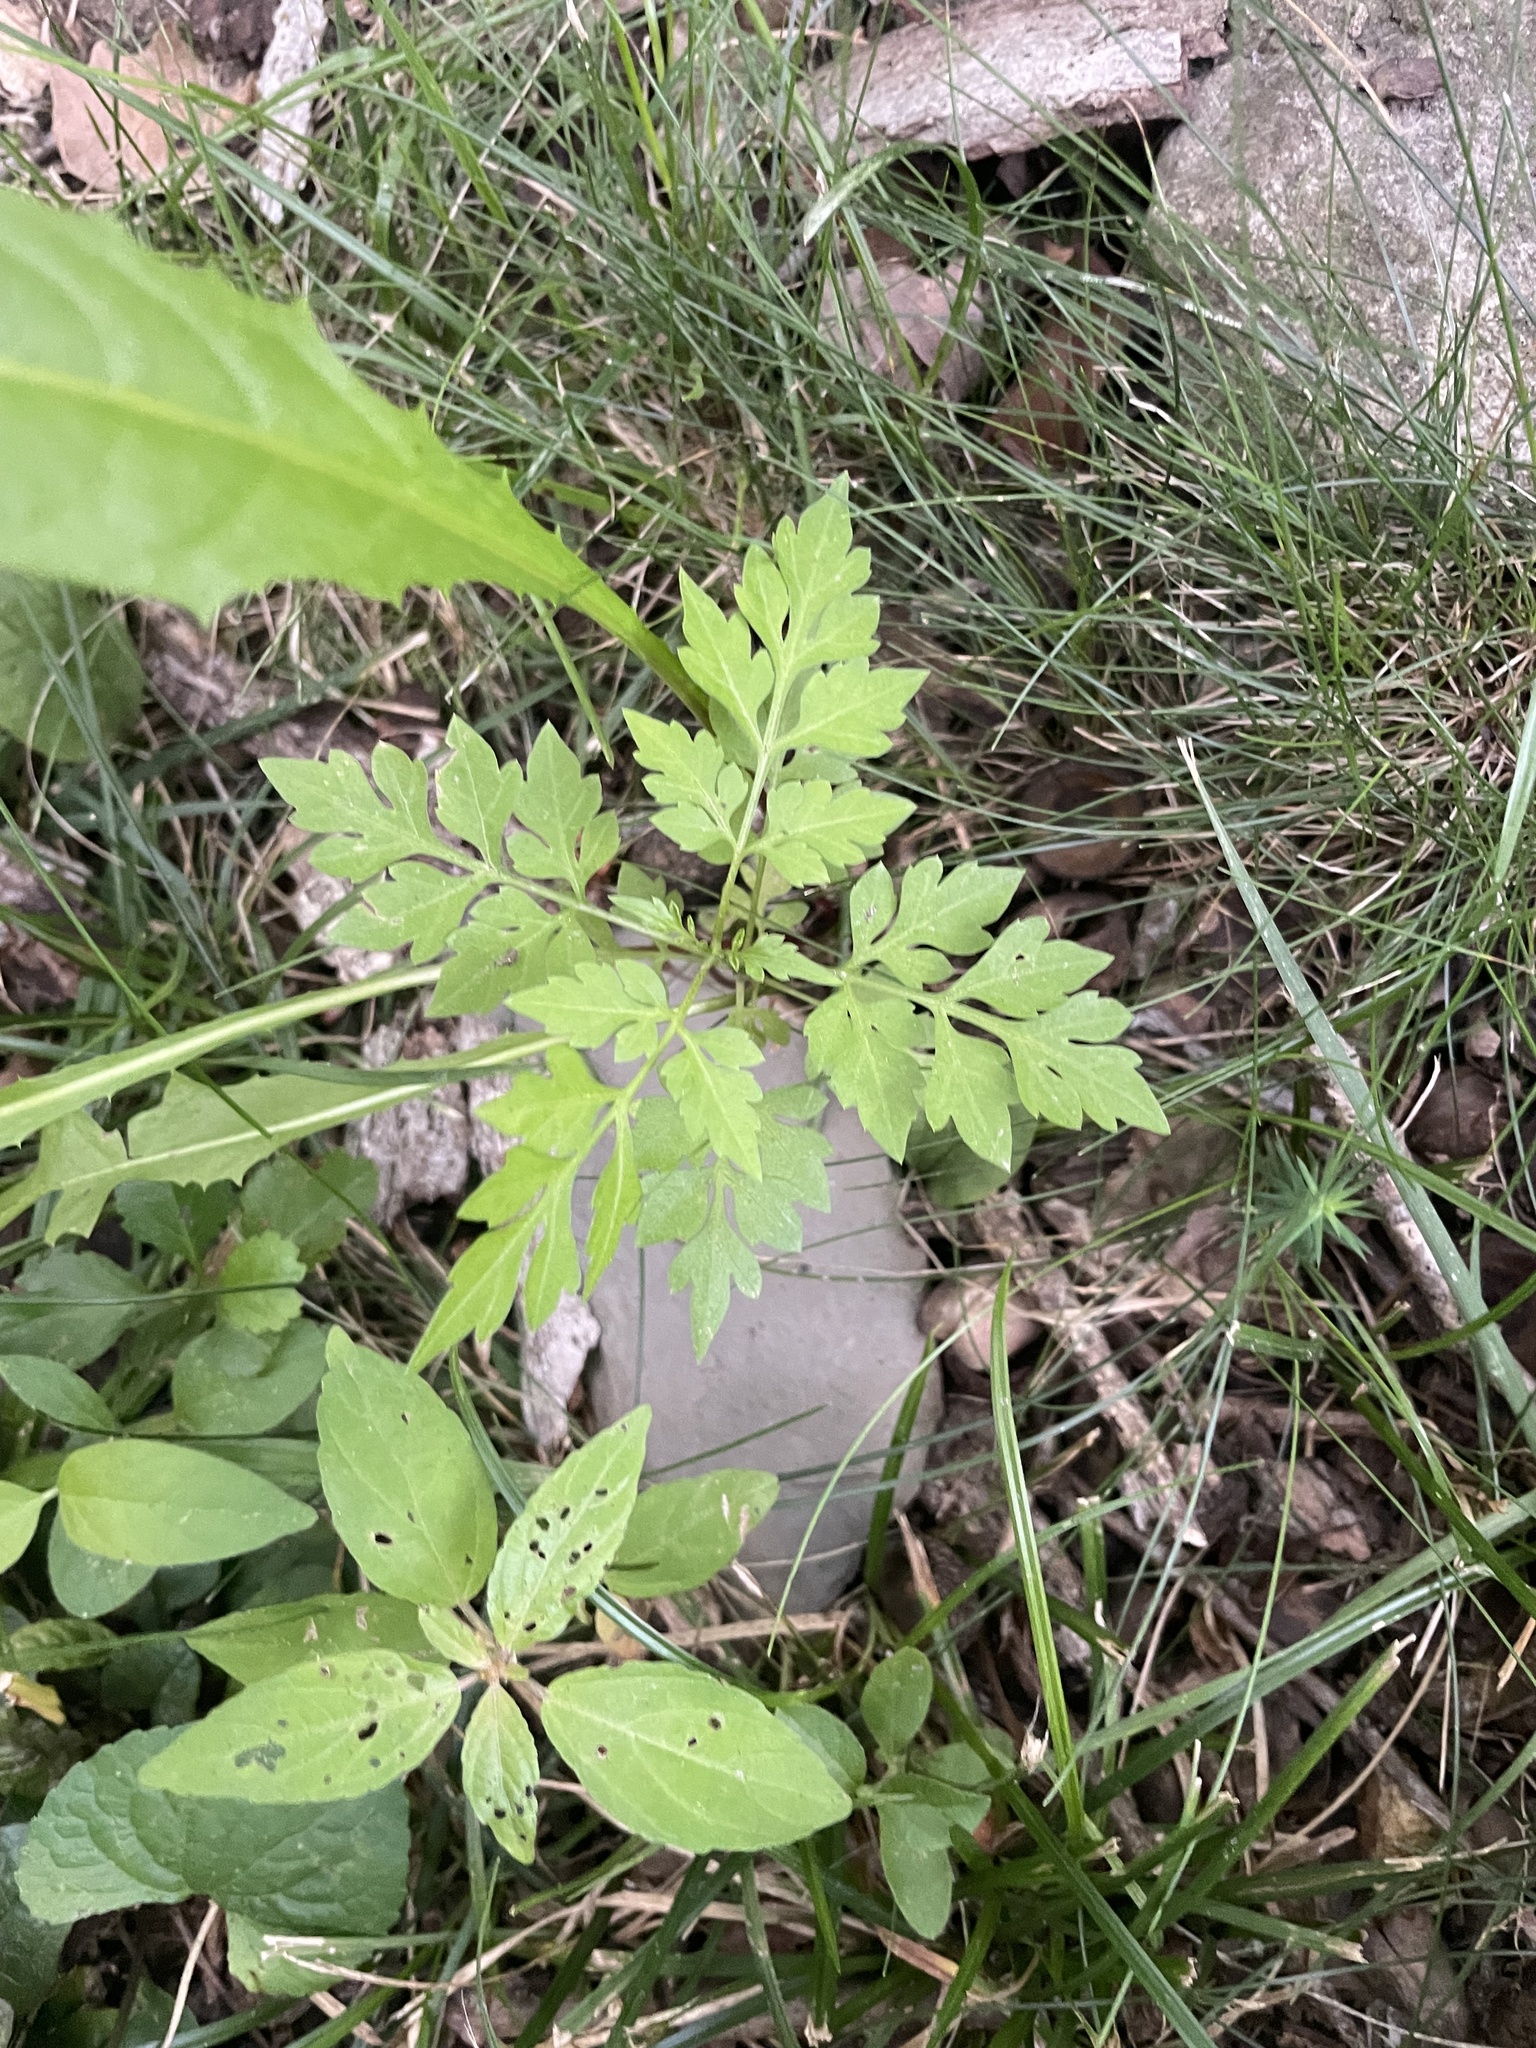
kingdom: Plantae
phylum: Tracheophyta
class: Magnoliopsida
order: Asterales
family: Asteraceae
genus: Bidens
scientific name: Bidens bipinnata
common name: Spanish-needles
